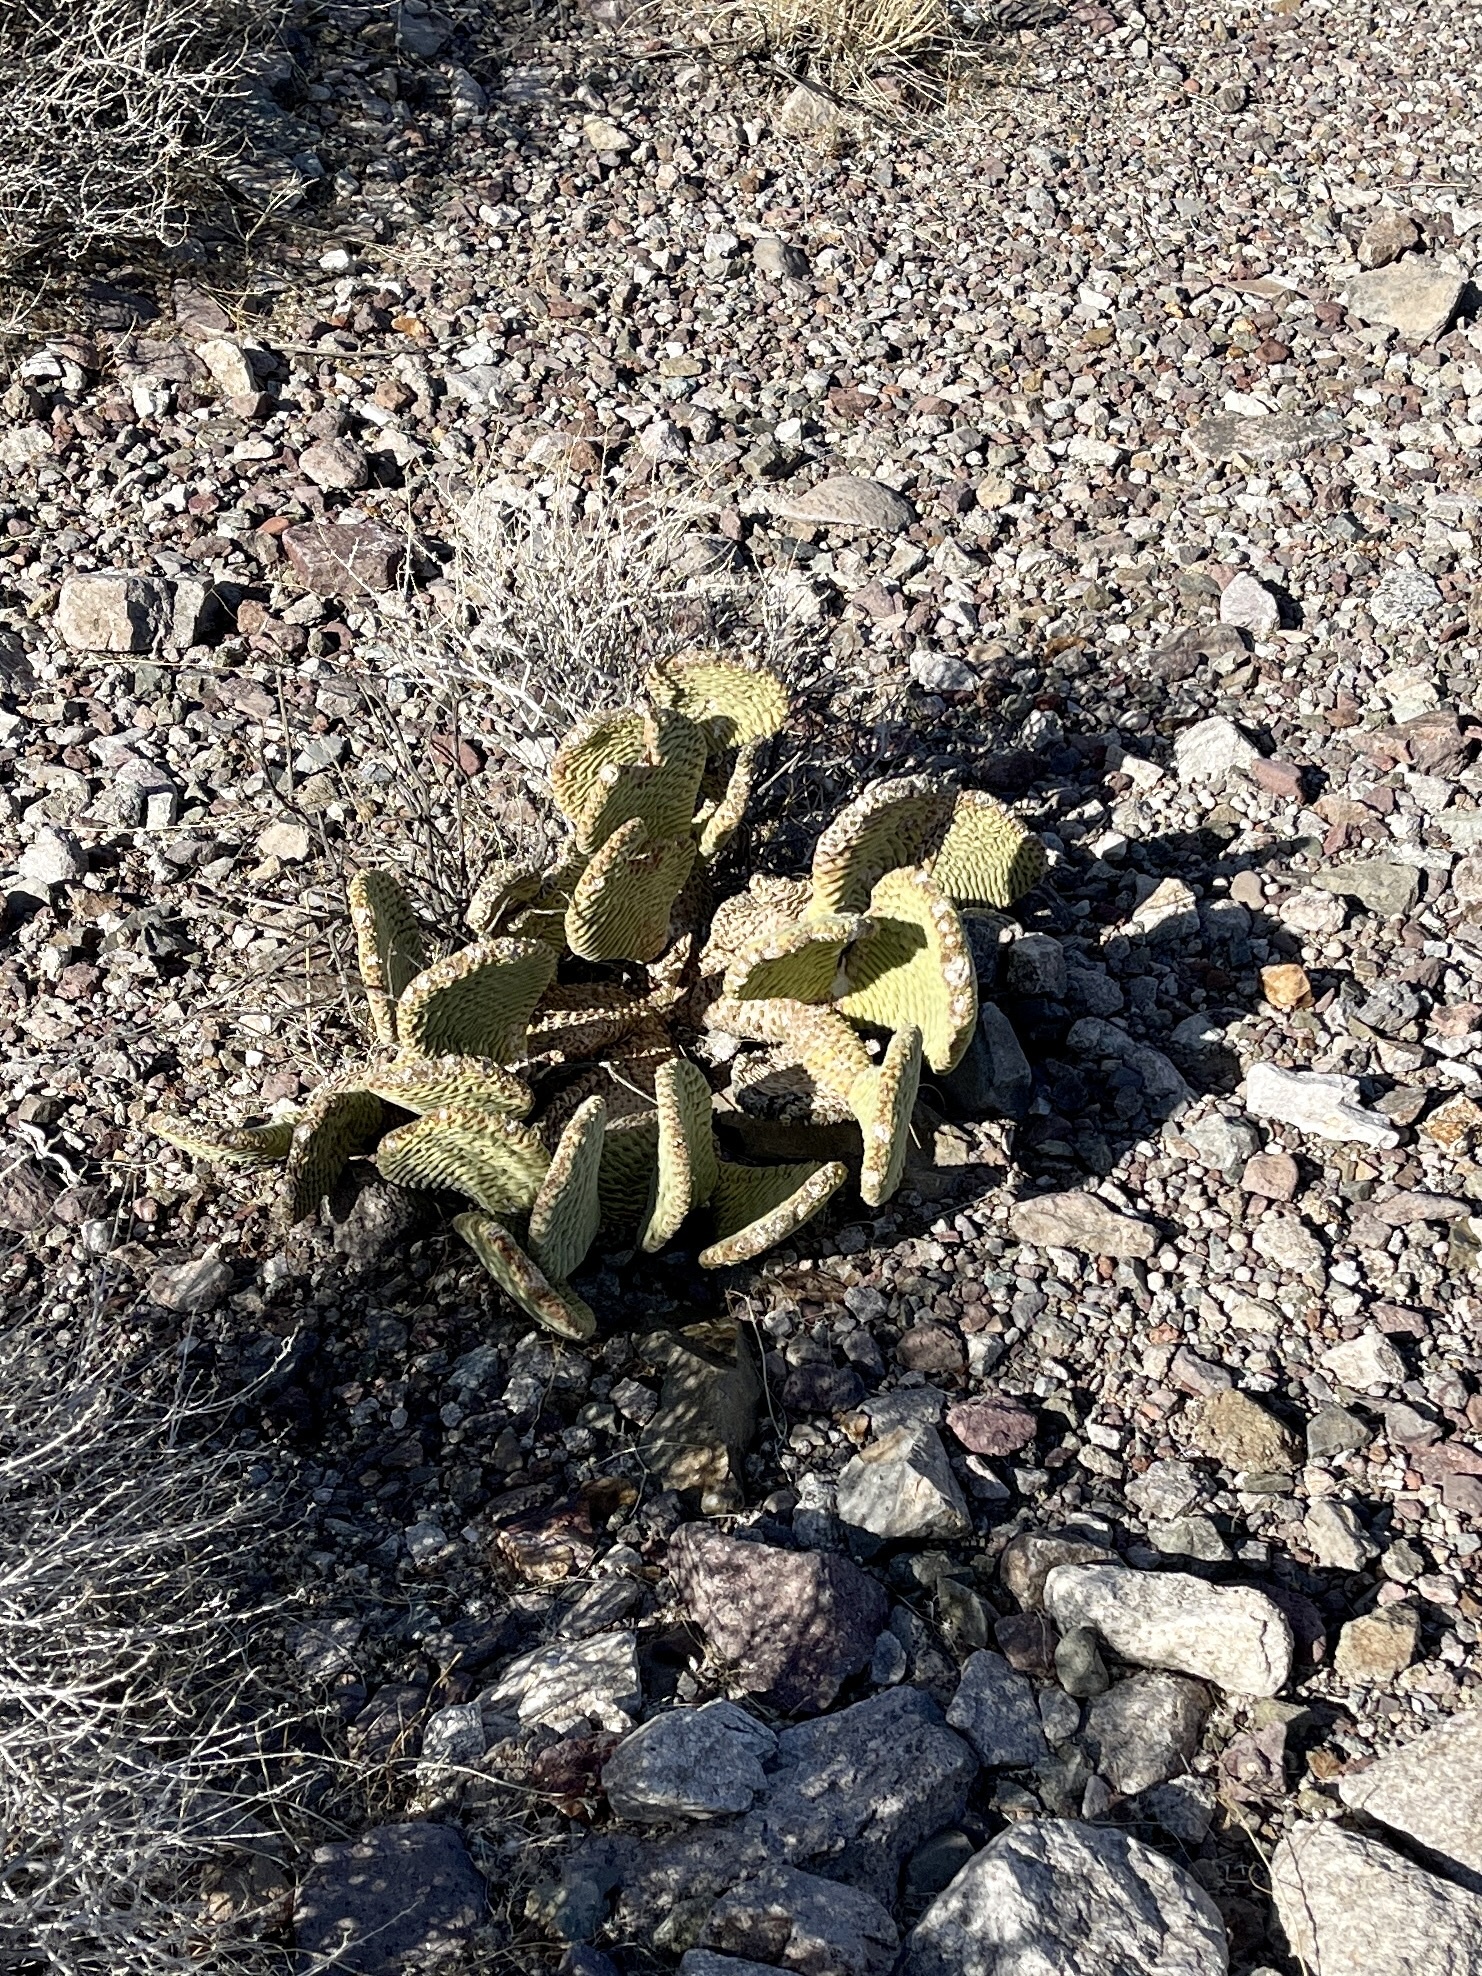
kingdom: Plantae
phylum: Tracheophyta
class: Magnoliopsida
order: Caryophyllales
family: Cactaceae
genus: Opuntia
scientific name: Opuntia basilaris
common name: Beavertail prickly-pear
